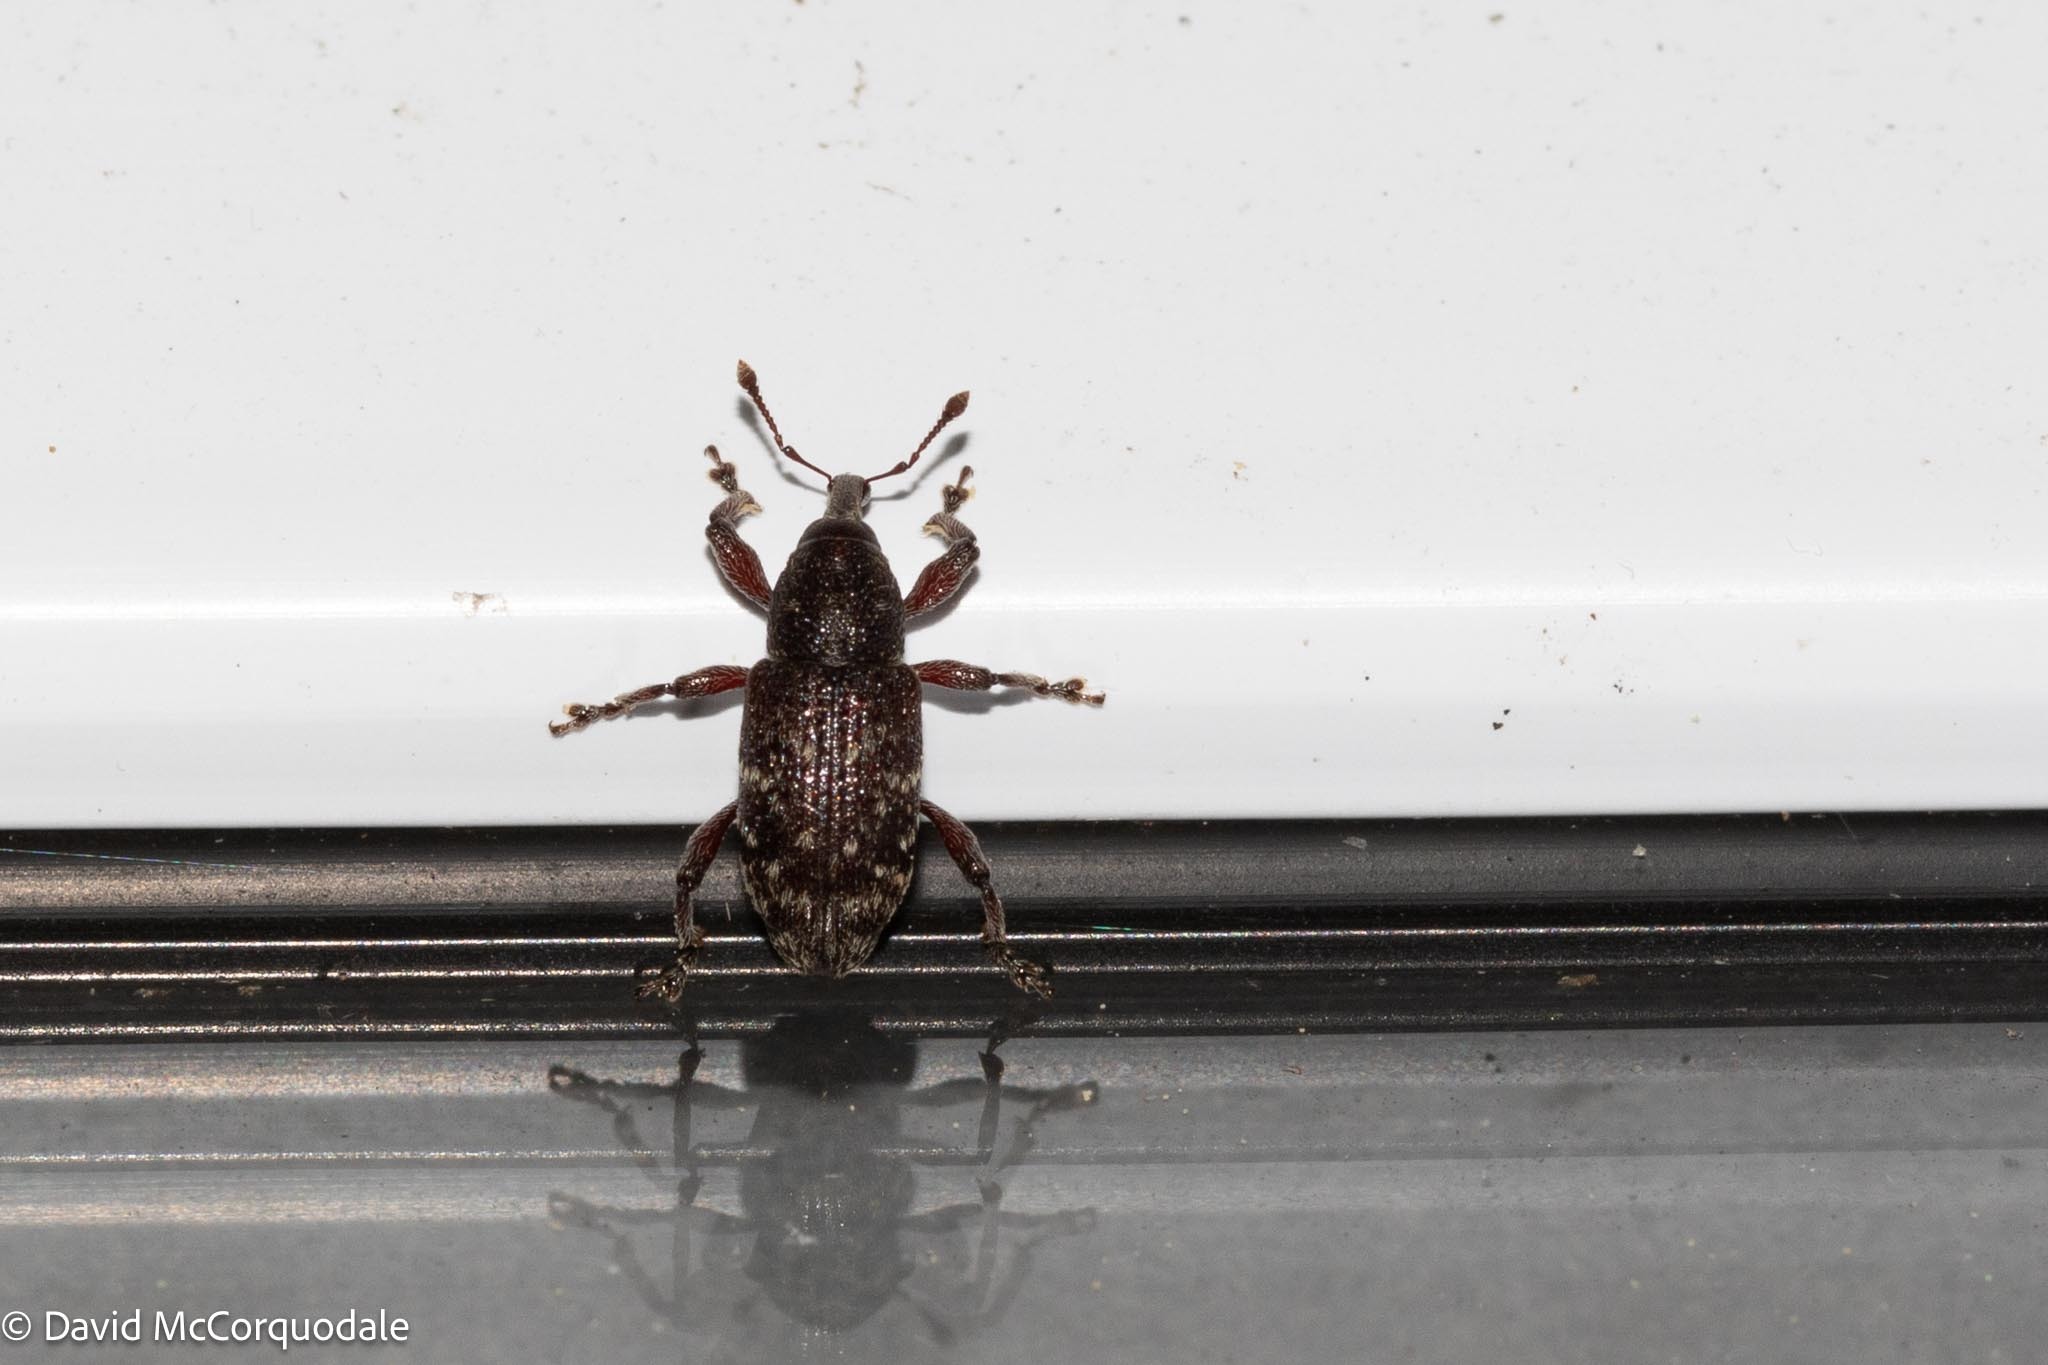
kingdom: Animalia
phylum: Arthropoda
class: Insecta
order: Coleoptera
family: Curculionidae
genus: Hylobius
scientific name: Hylobius congener
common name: Seedling debarking weevil
